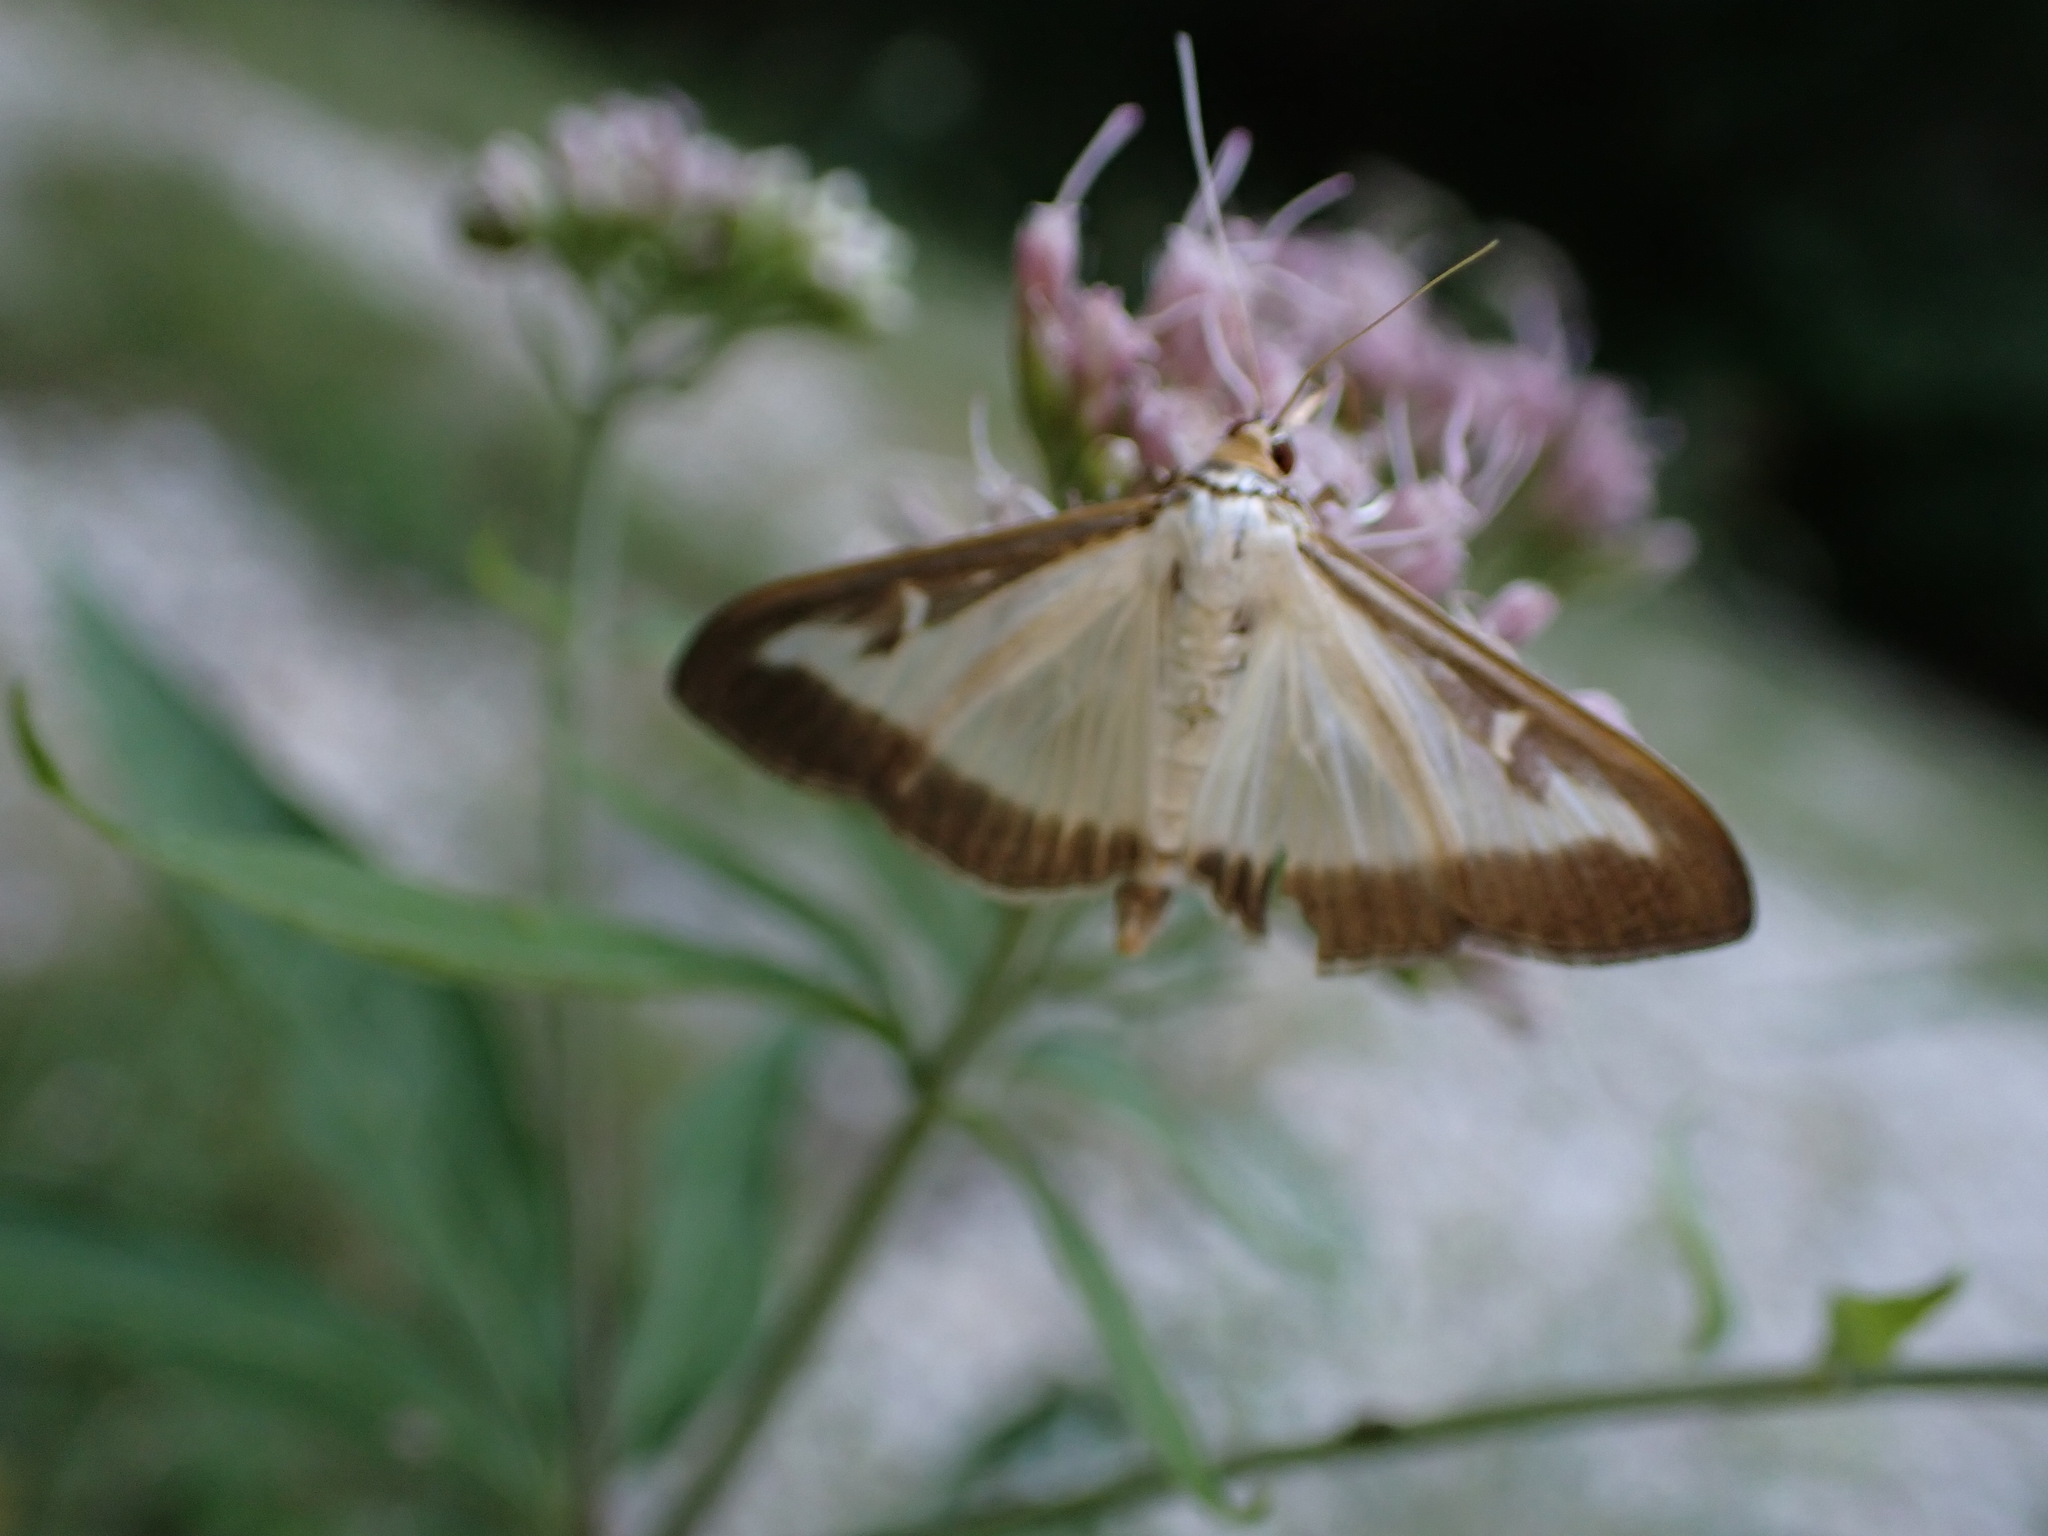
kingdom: Animalia
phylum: Arthropoda
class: Insecta
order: Lepidoptera
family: Crambidae
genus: Cydalima
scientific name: Cydalima perspectalis
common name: Box tree moth
